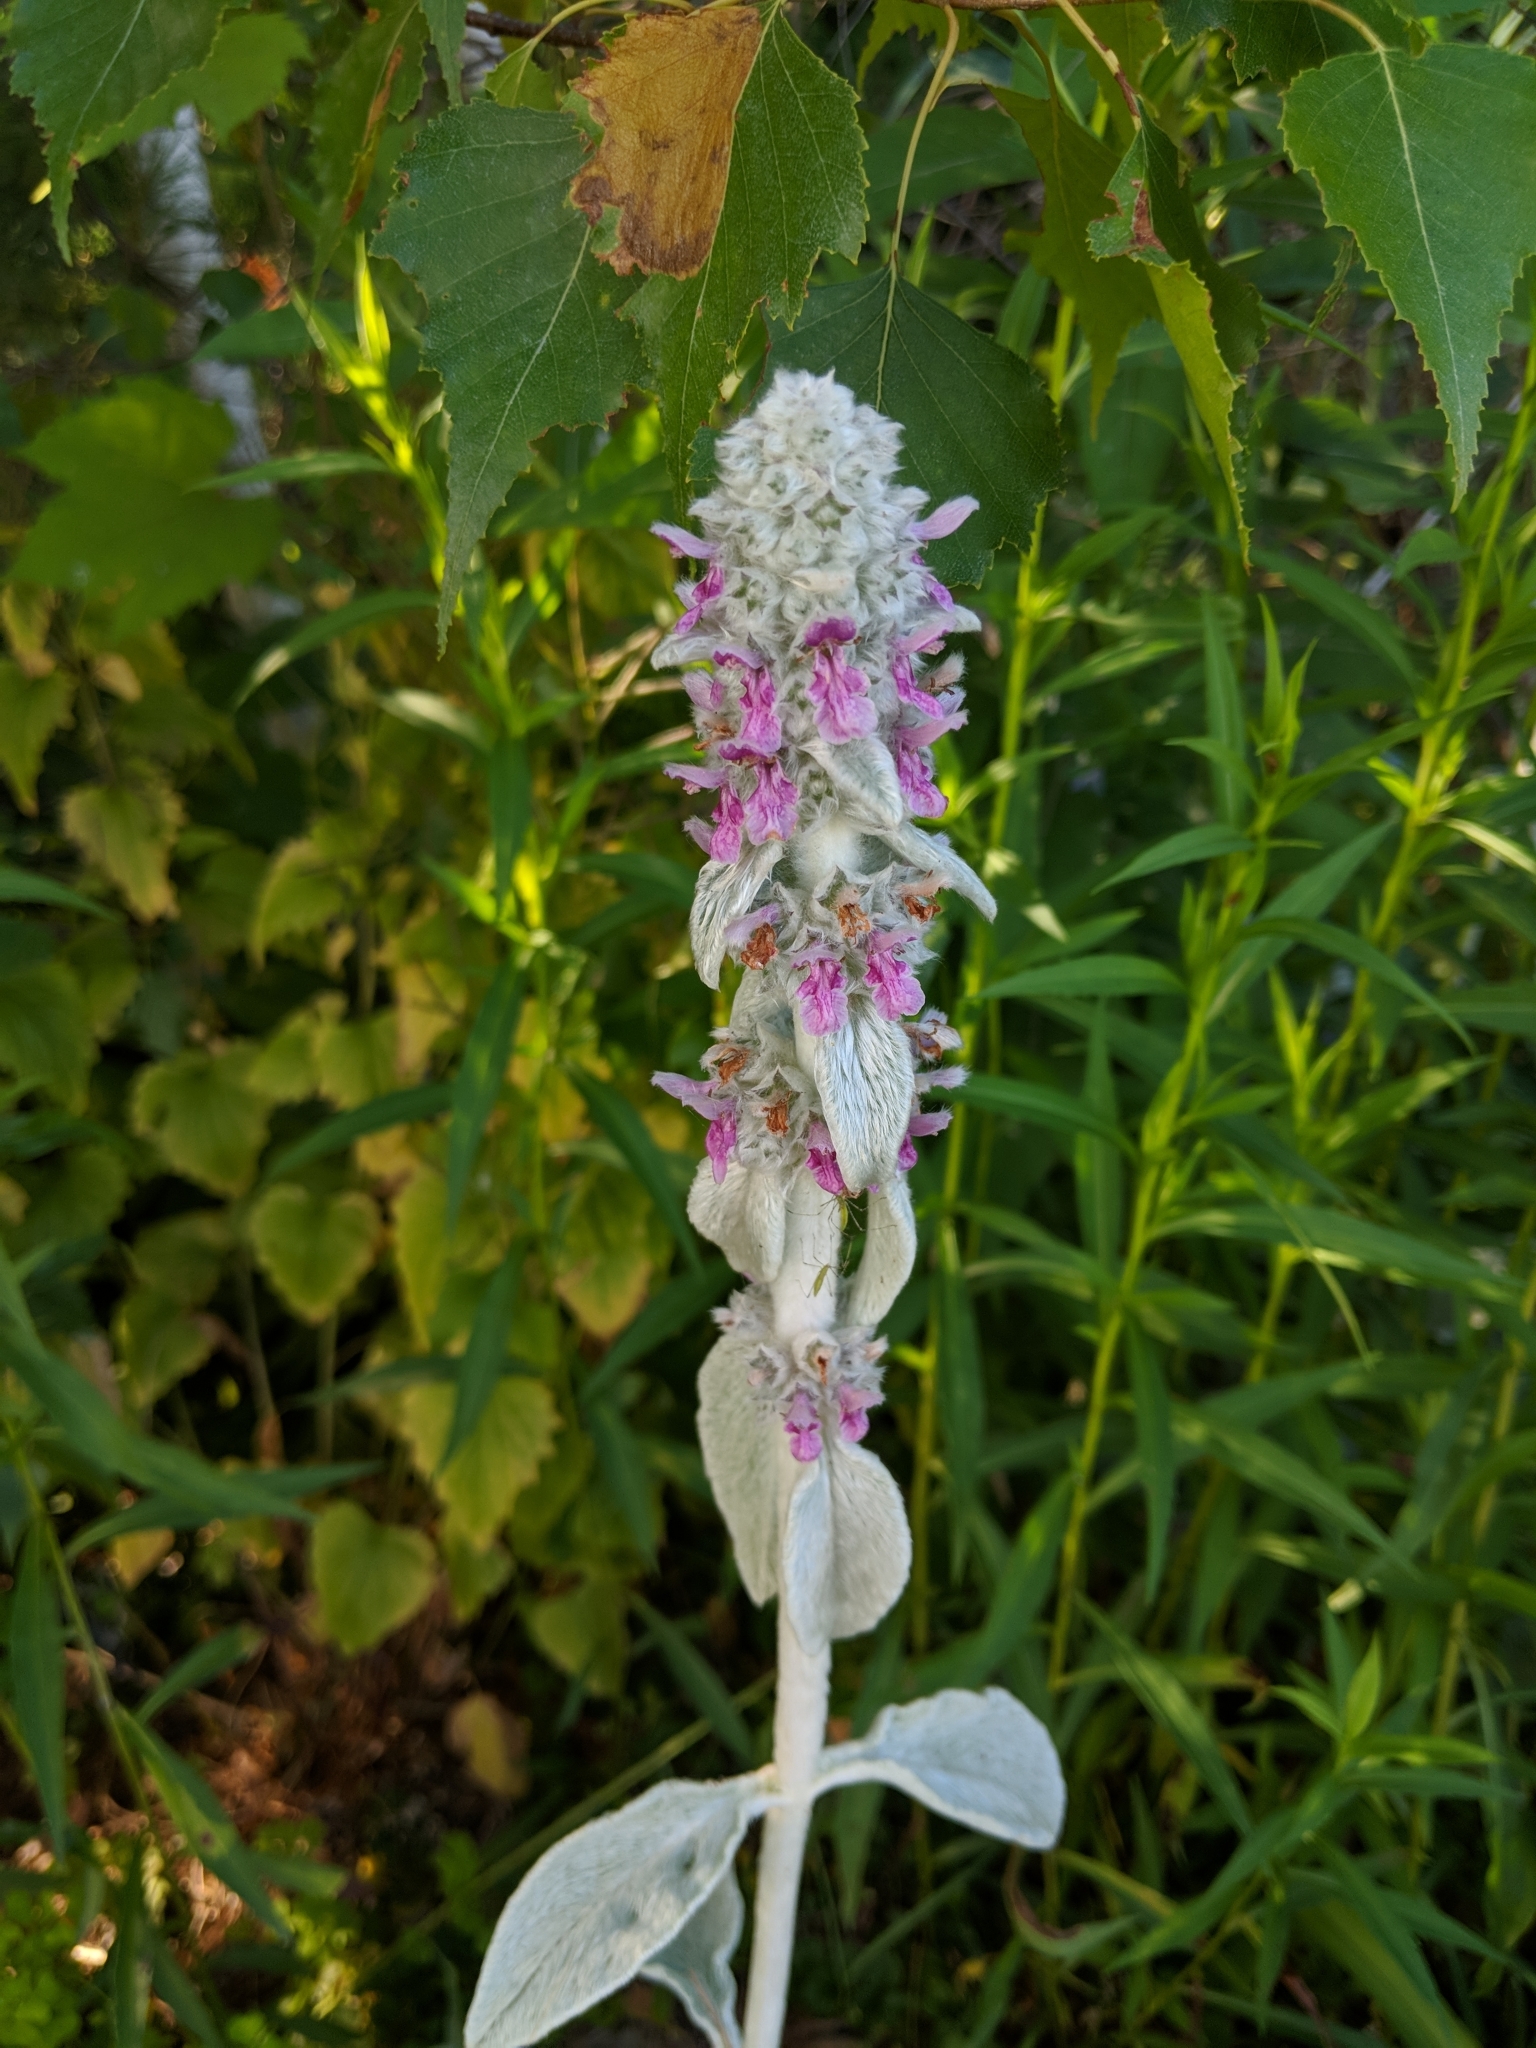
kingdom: Plantae
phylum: Tracheophyta
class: Magnoliopsida
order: Lamiales
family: Lamiaceae
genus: Stachys
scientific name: Stachys byzantina
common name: Lamb's-ear
